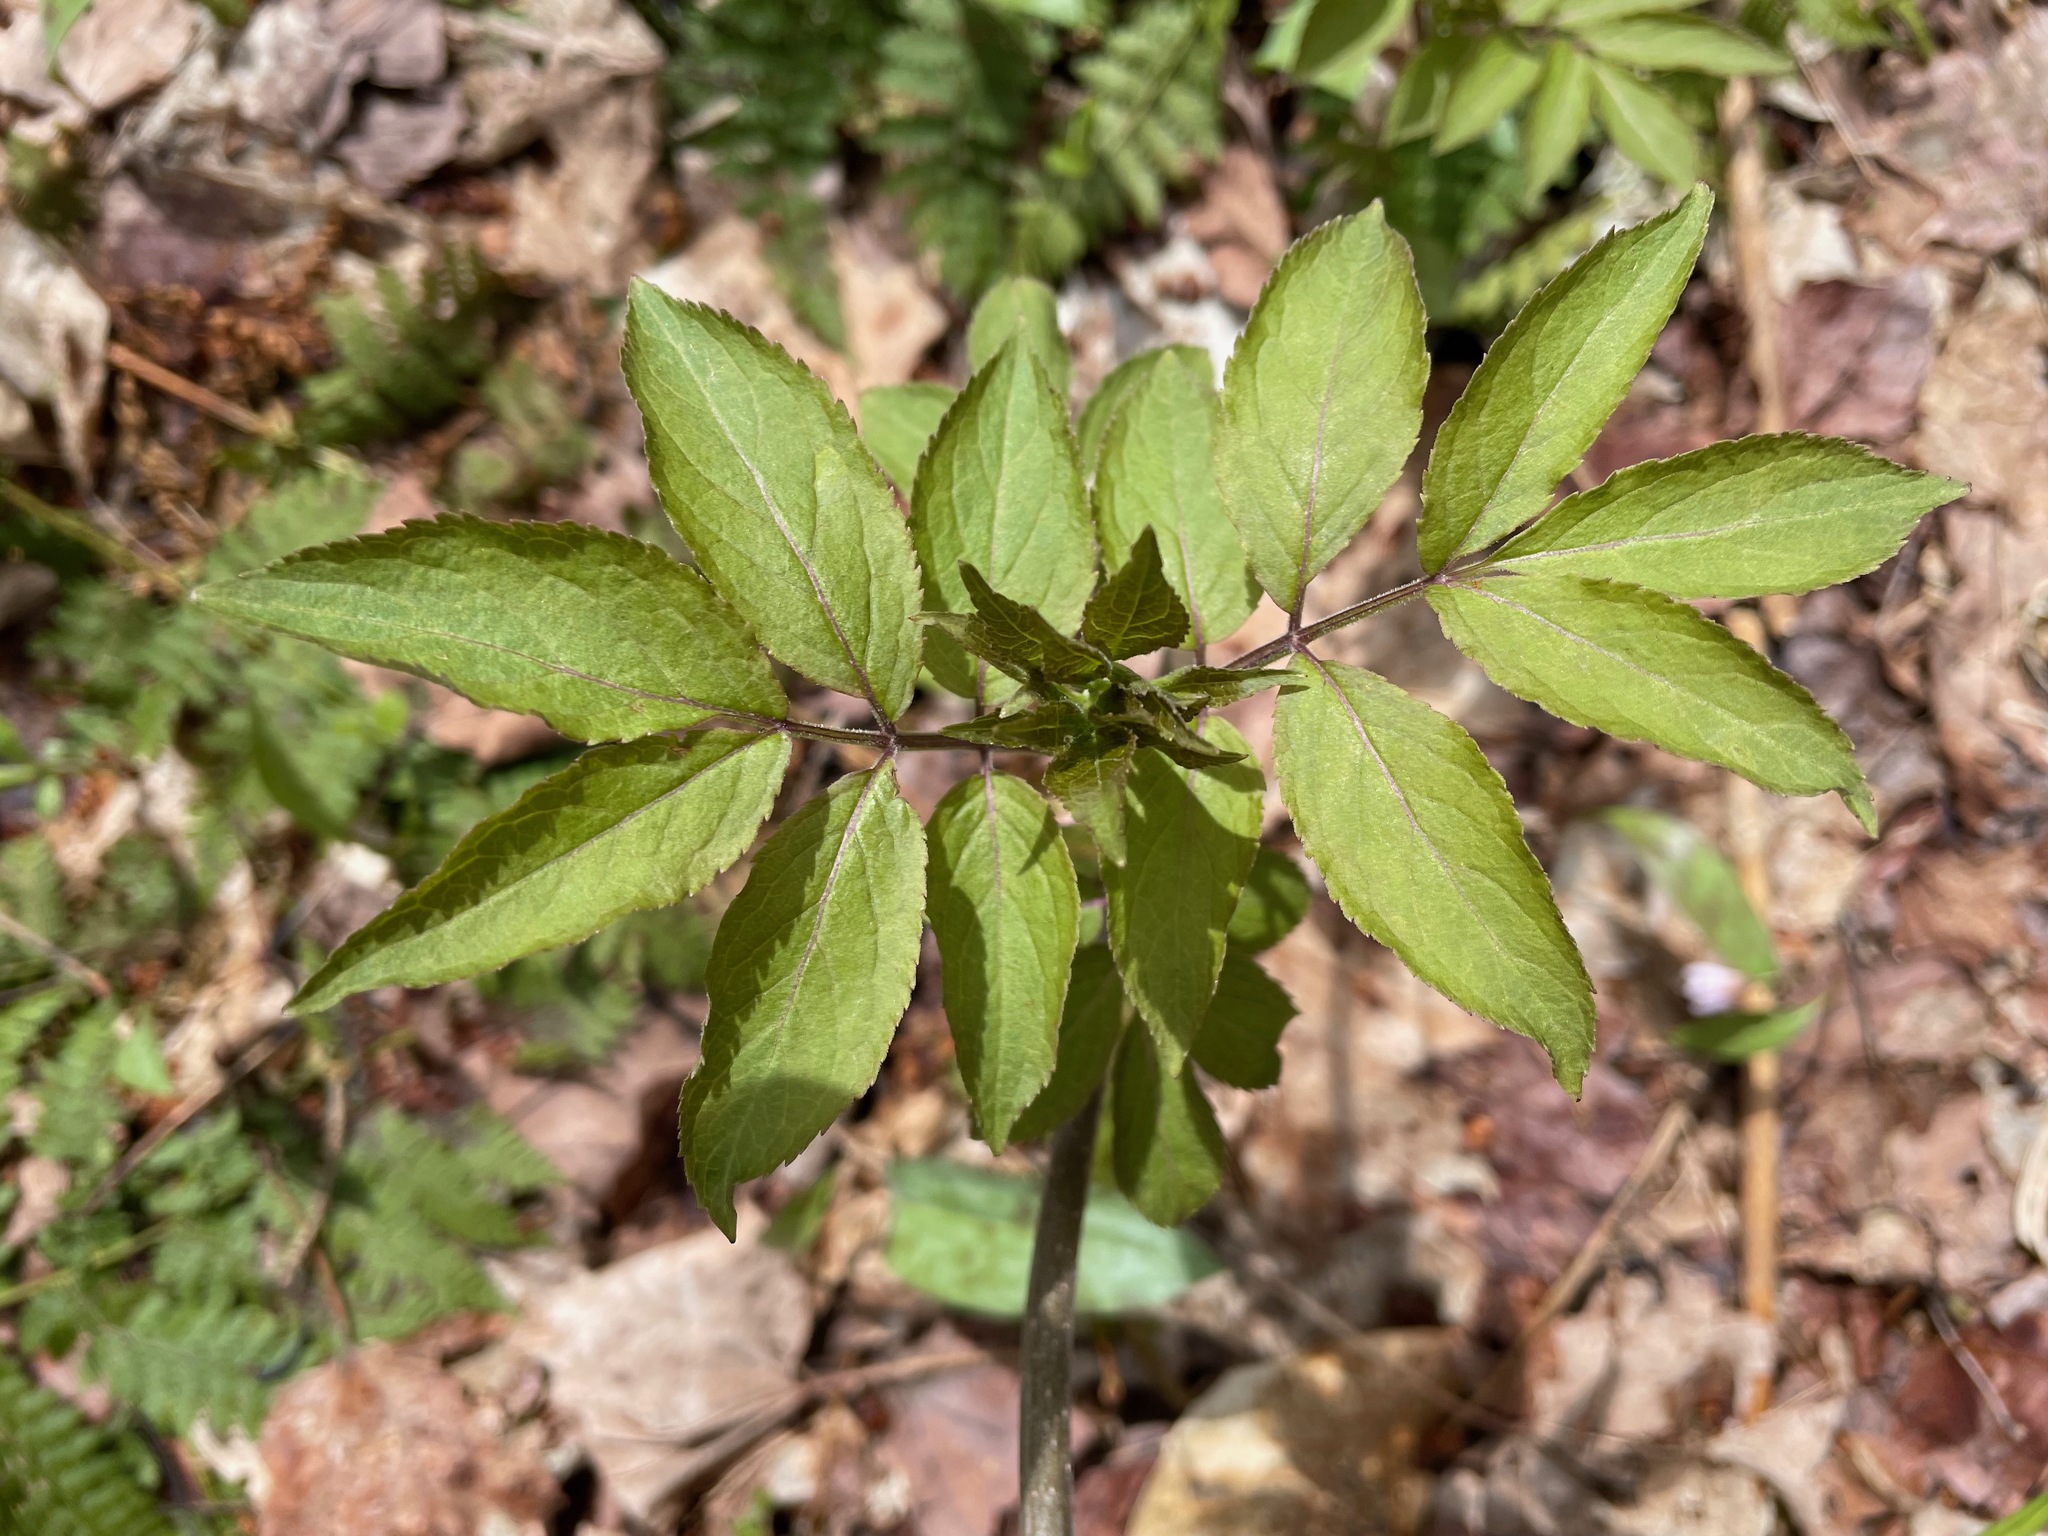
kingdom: Plantae
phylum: Tracheophyta
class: Magnoliopsida
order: Dipsacales
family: Viburnaceae
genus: Sambucus
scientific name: Sambucus racemosa
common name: Red-berried elder
